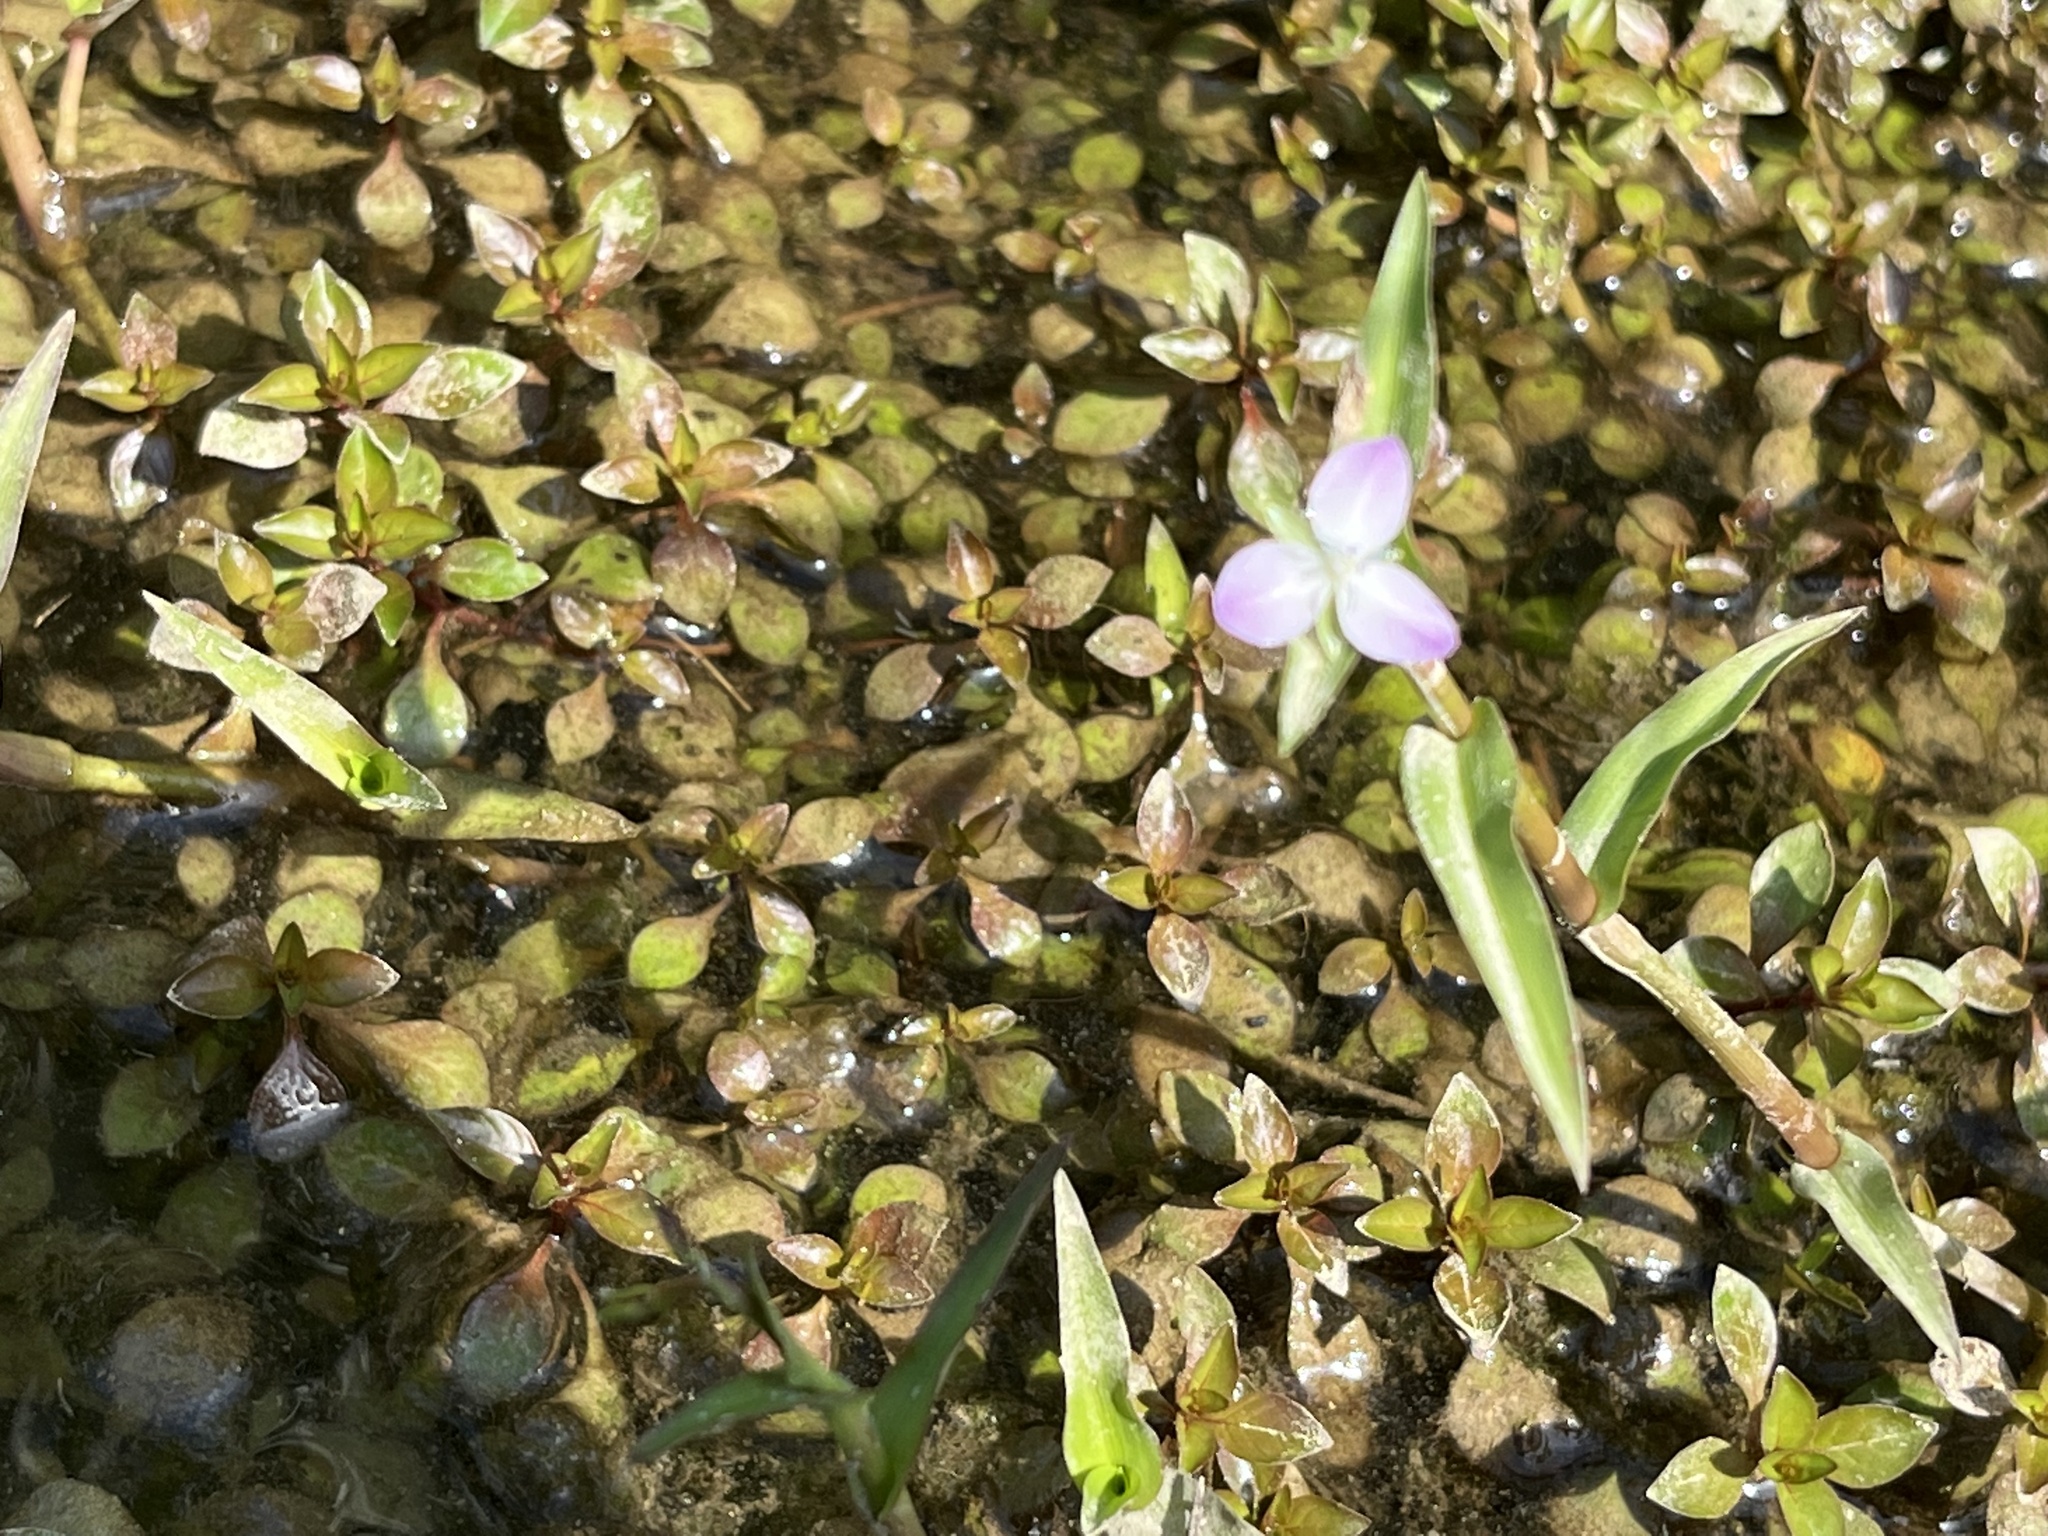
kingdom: Plantae
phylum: Tracheophyta
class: Liliopsida
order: Commelinales
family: Commelinaceae
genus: Murdannia
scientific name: Murdannia keisak
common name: Wartremoving herb
